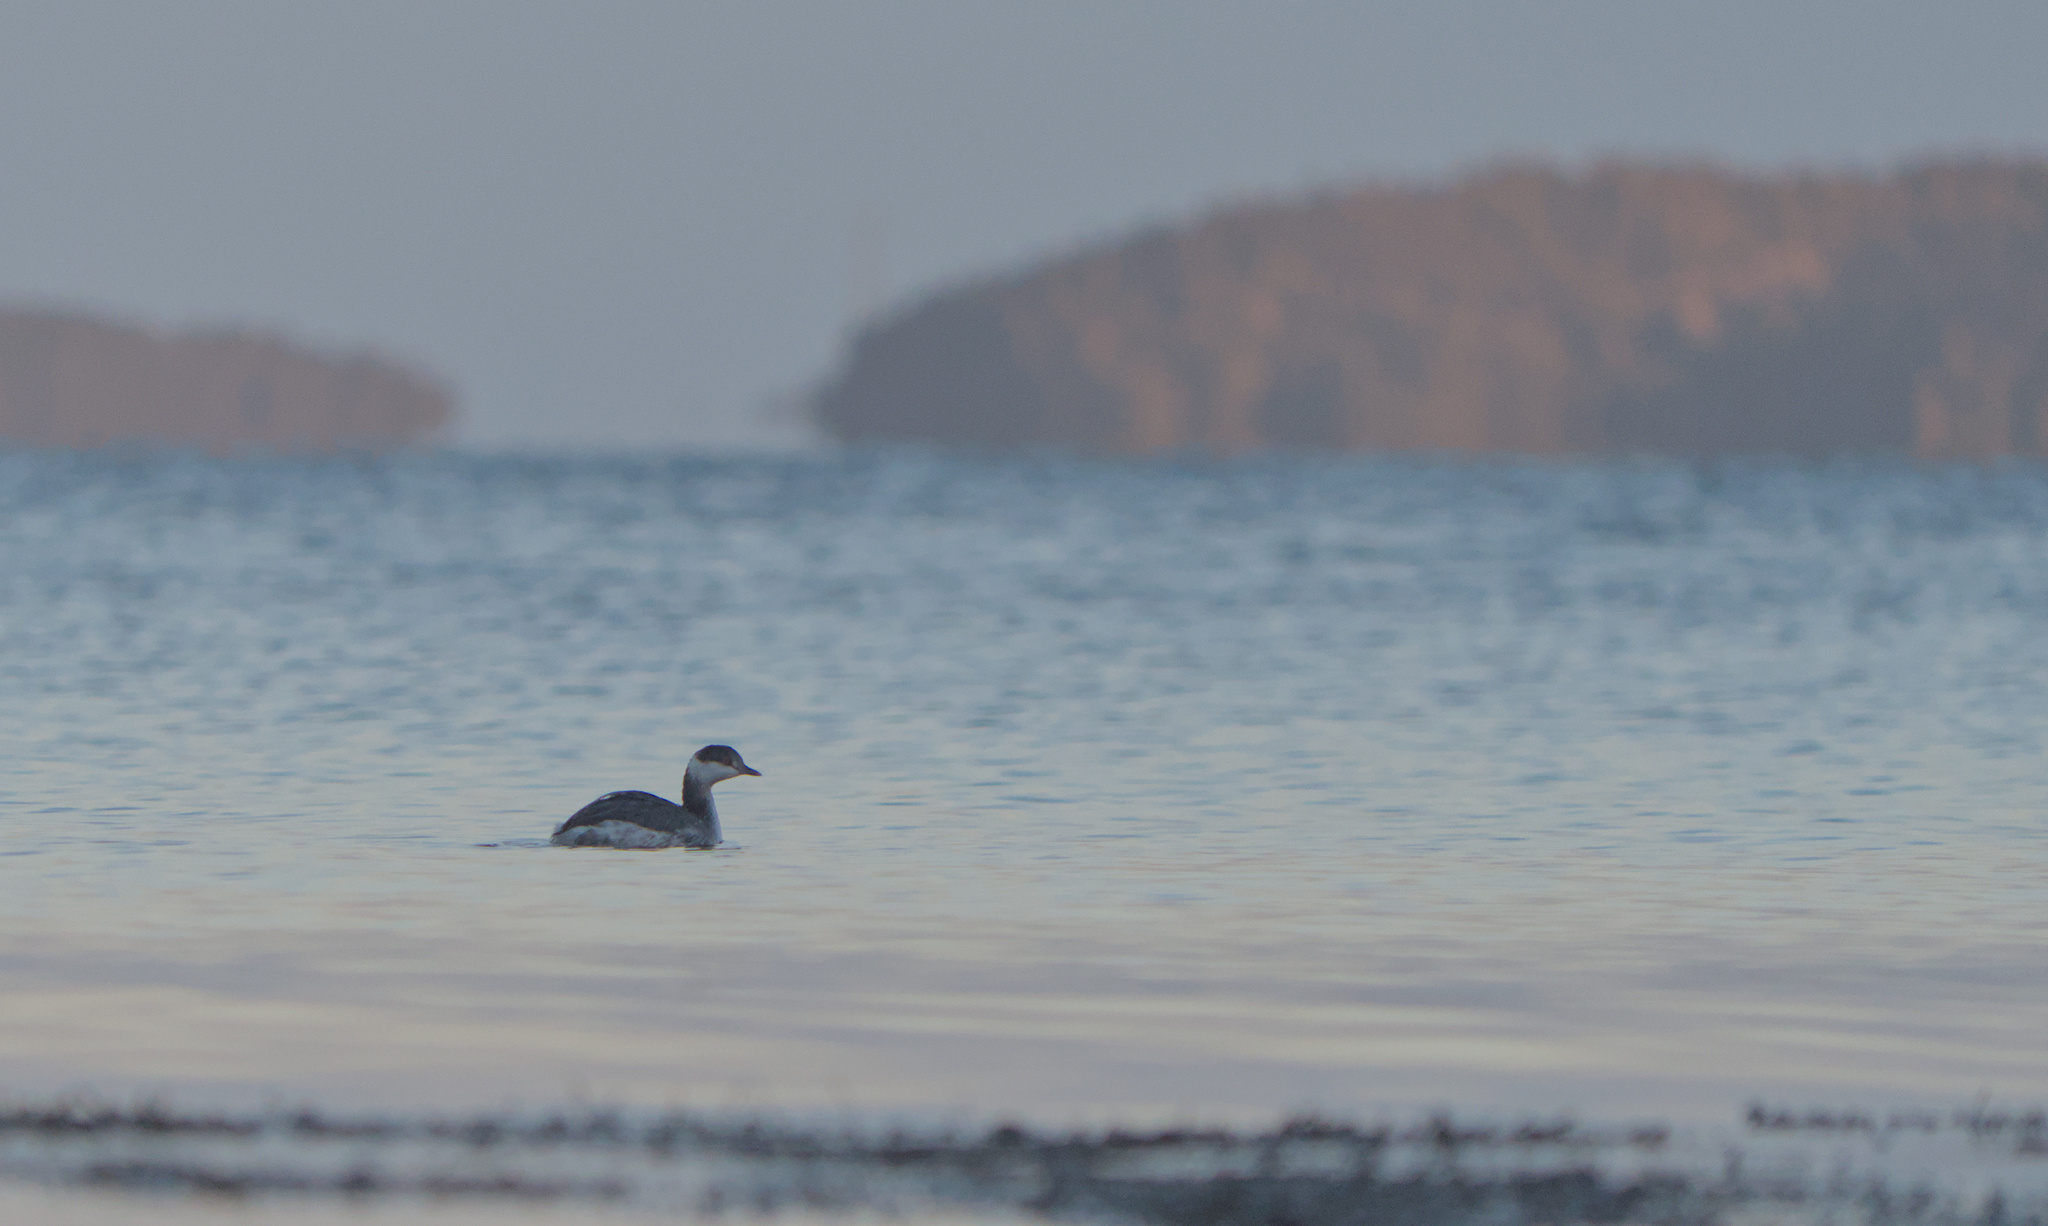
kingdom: Animalia
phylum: Chordata
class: Aves
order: Podicipediformes
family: Podicipedidae
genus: Podiceps
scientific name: Podiceps auritus
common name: Horned grebe
